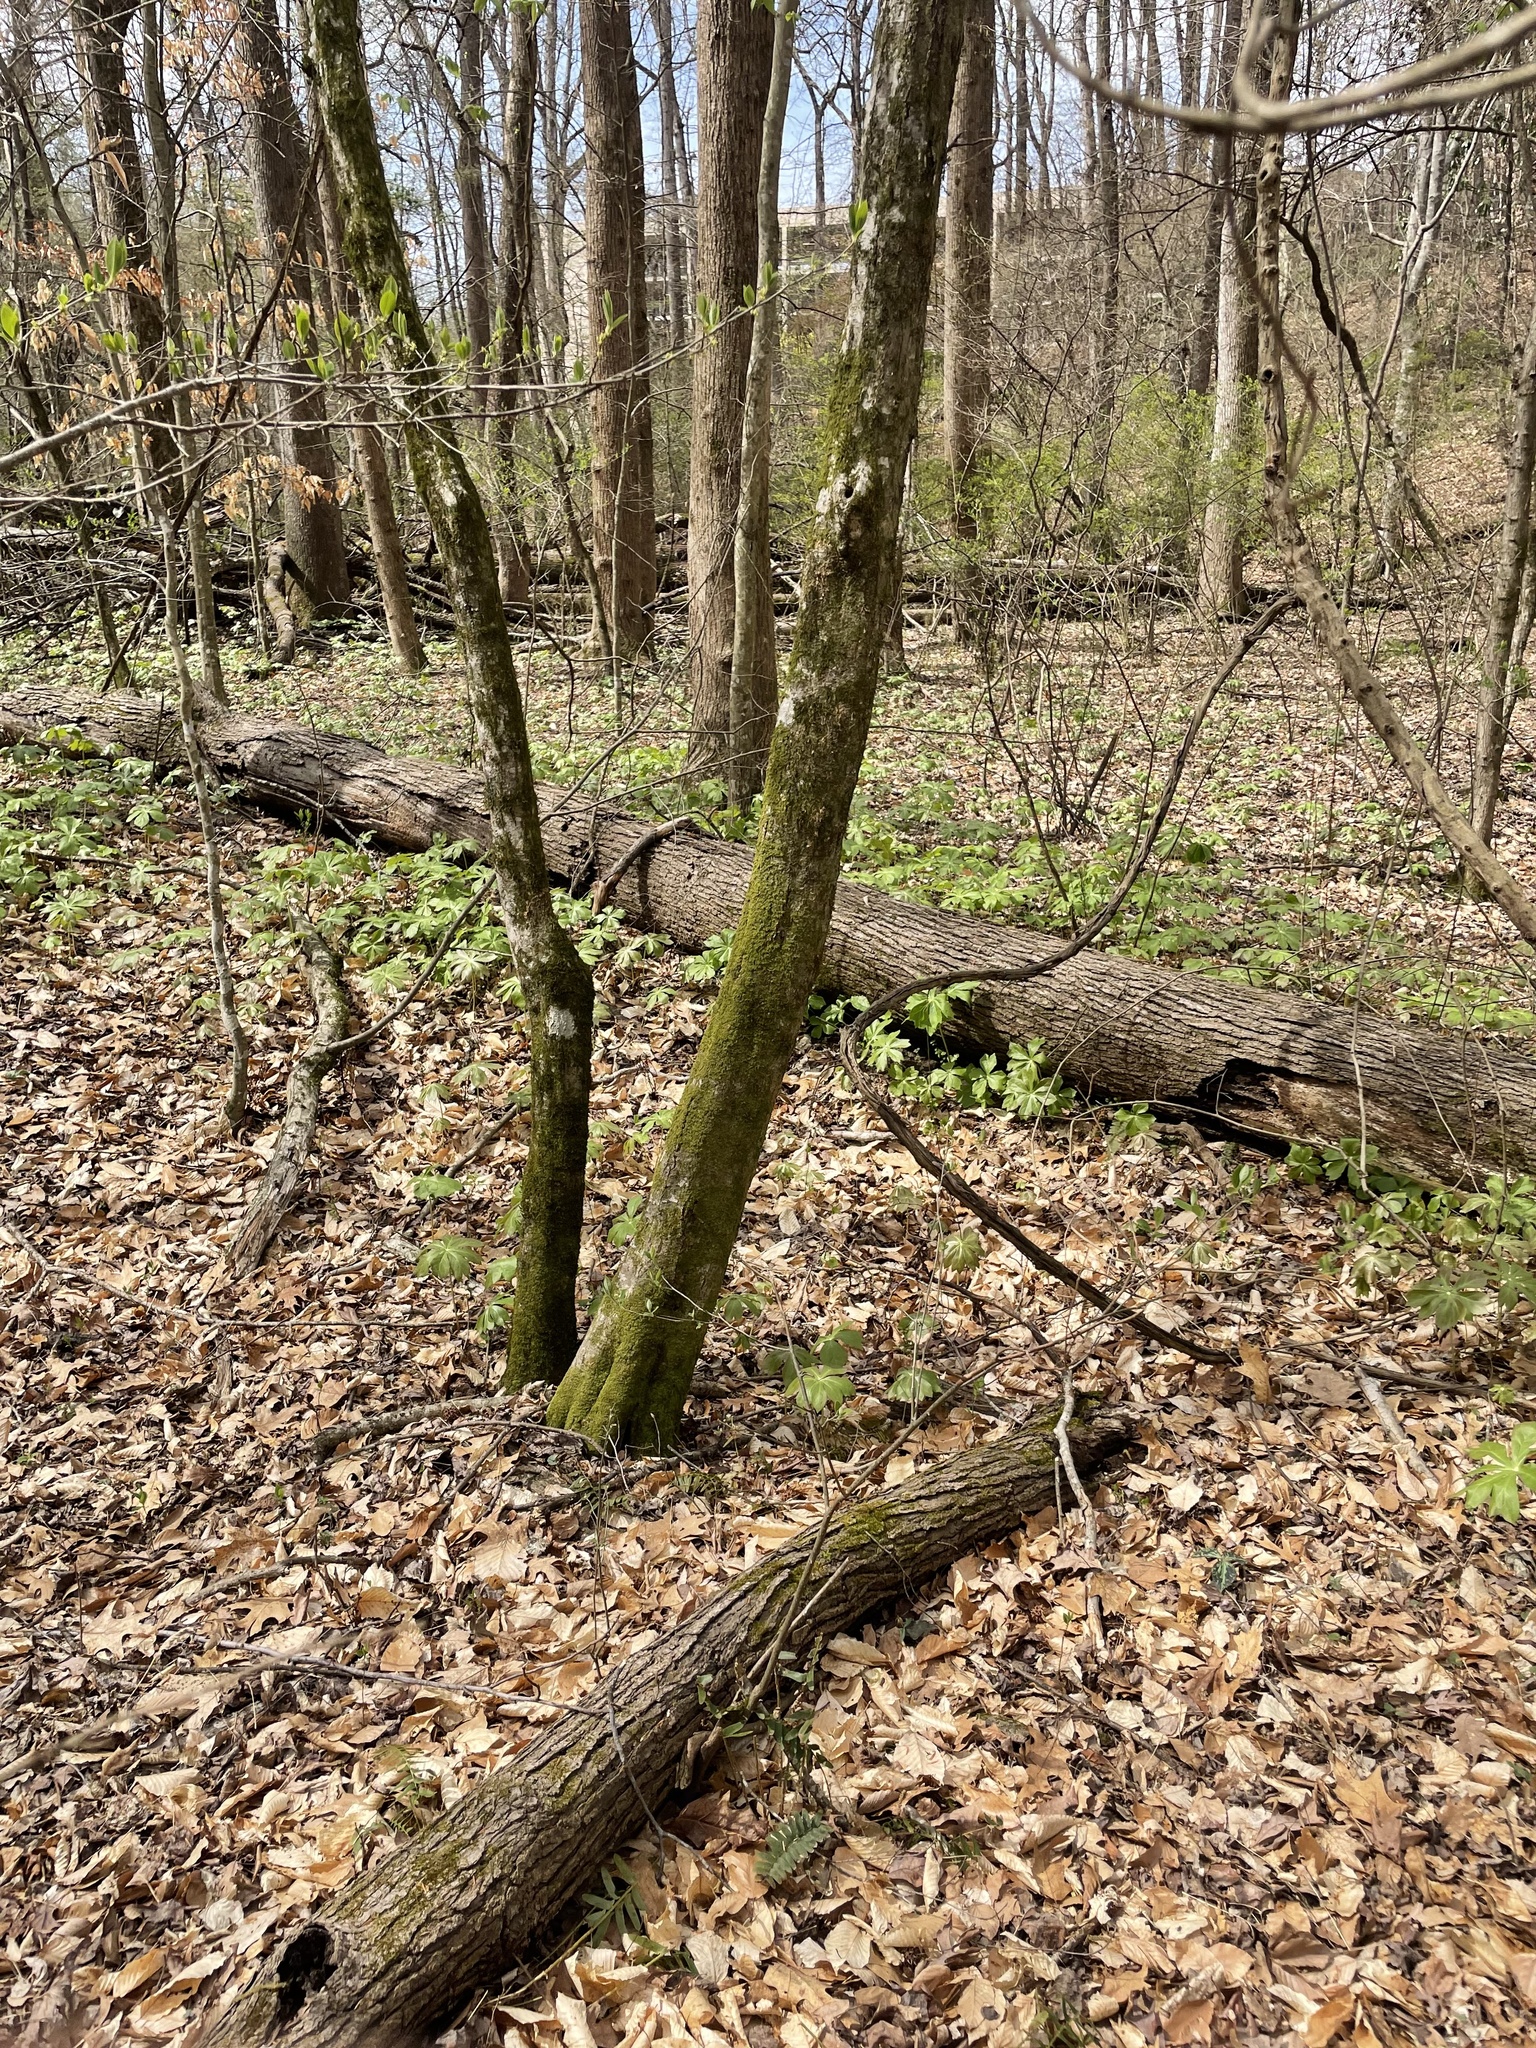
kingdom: Plantae
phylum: Tracheophyta
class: Magnoliopsida
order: Ranunculales
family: Berberidaceae
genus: Podophyllum
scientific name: Podophyllum peltatum
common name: Wild mandrake
